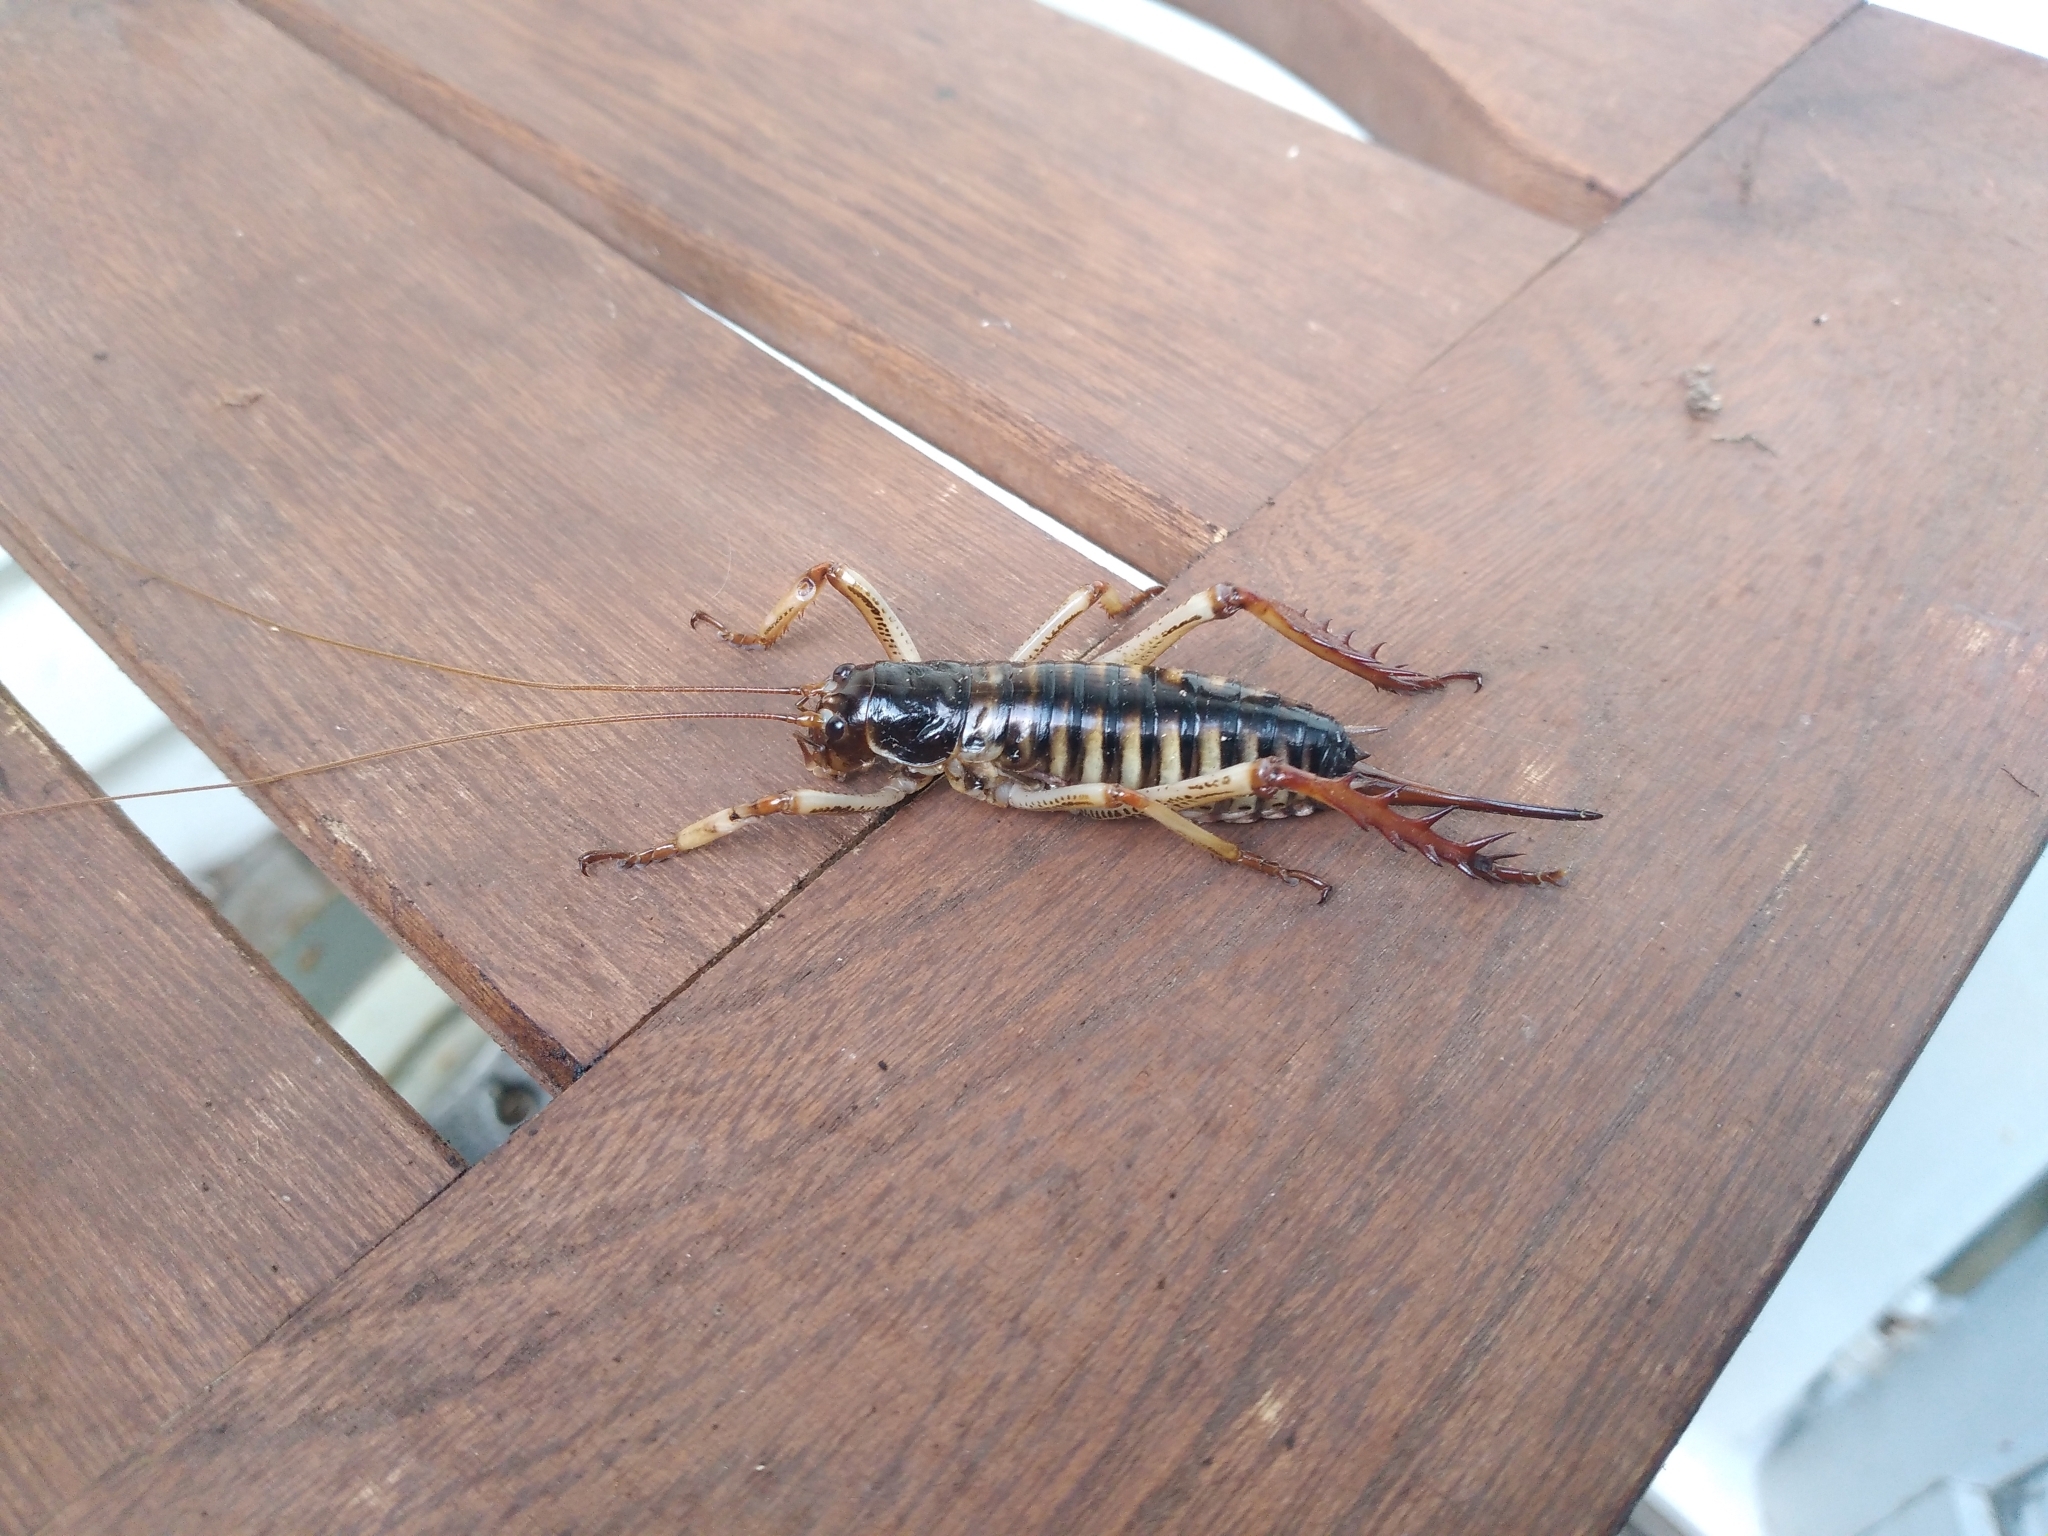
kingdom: Animalia
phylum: Arthropoda
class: Insecta
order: Orthoptera
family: Anostostomatidae
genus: Hemideina
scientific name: Hemideina crassidens
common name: Wellington tree weta
